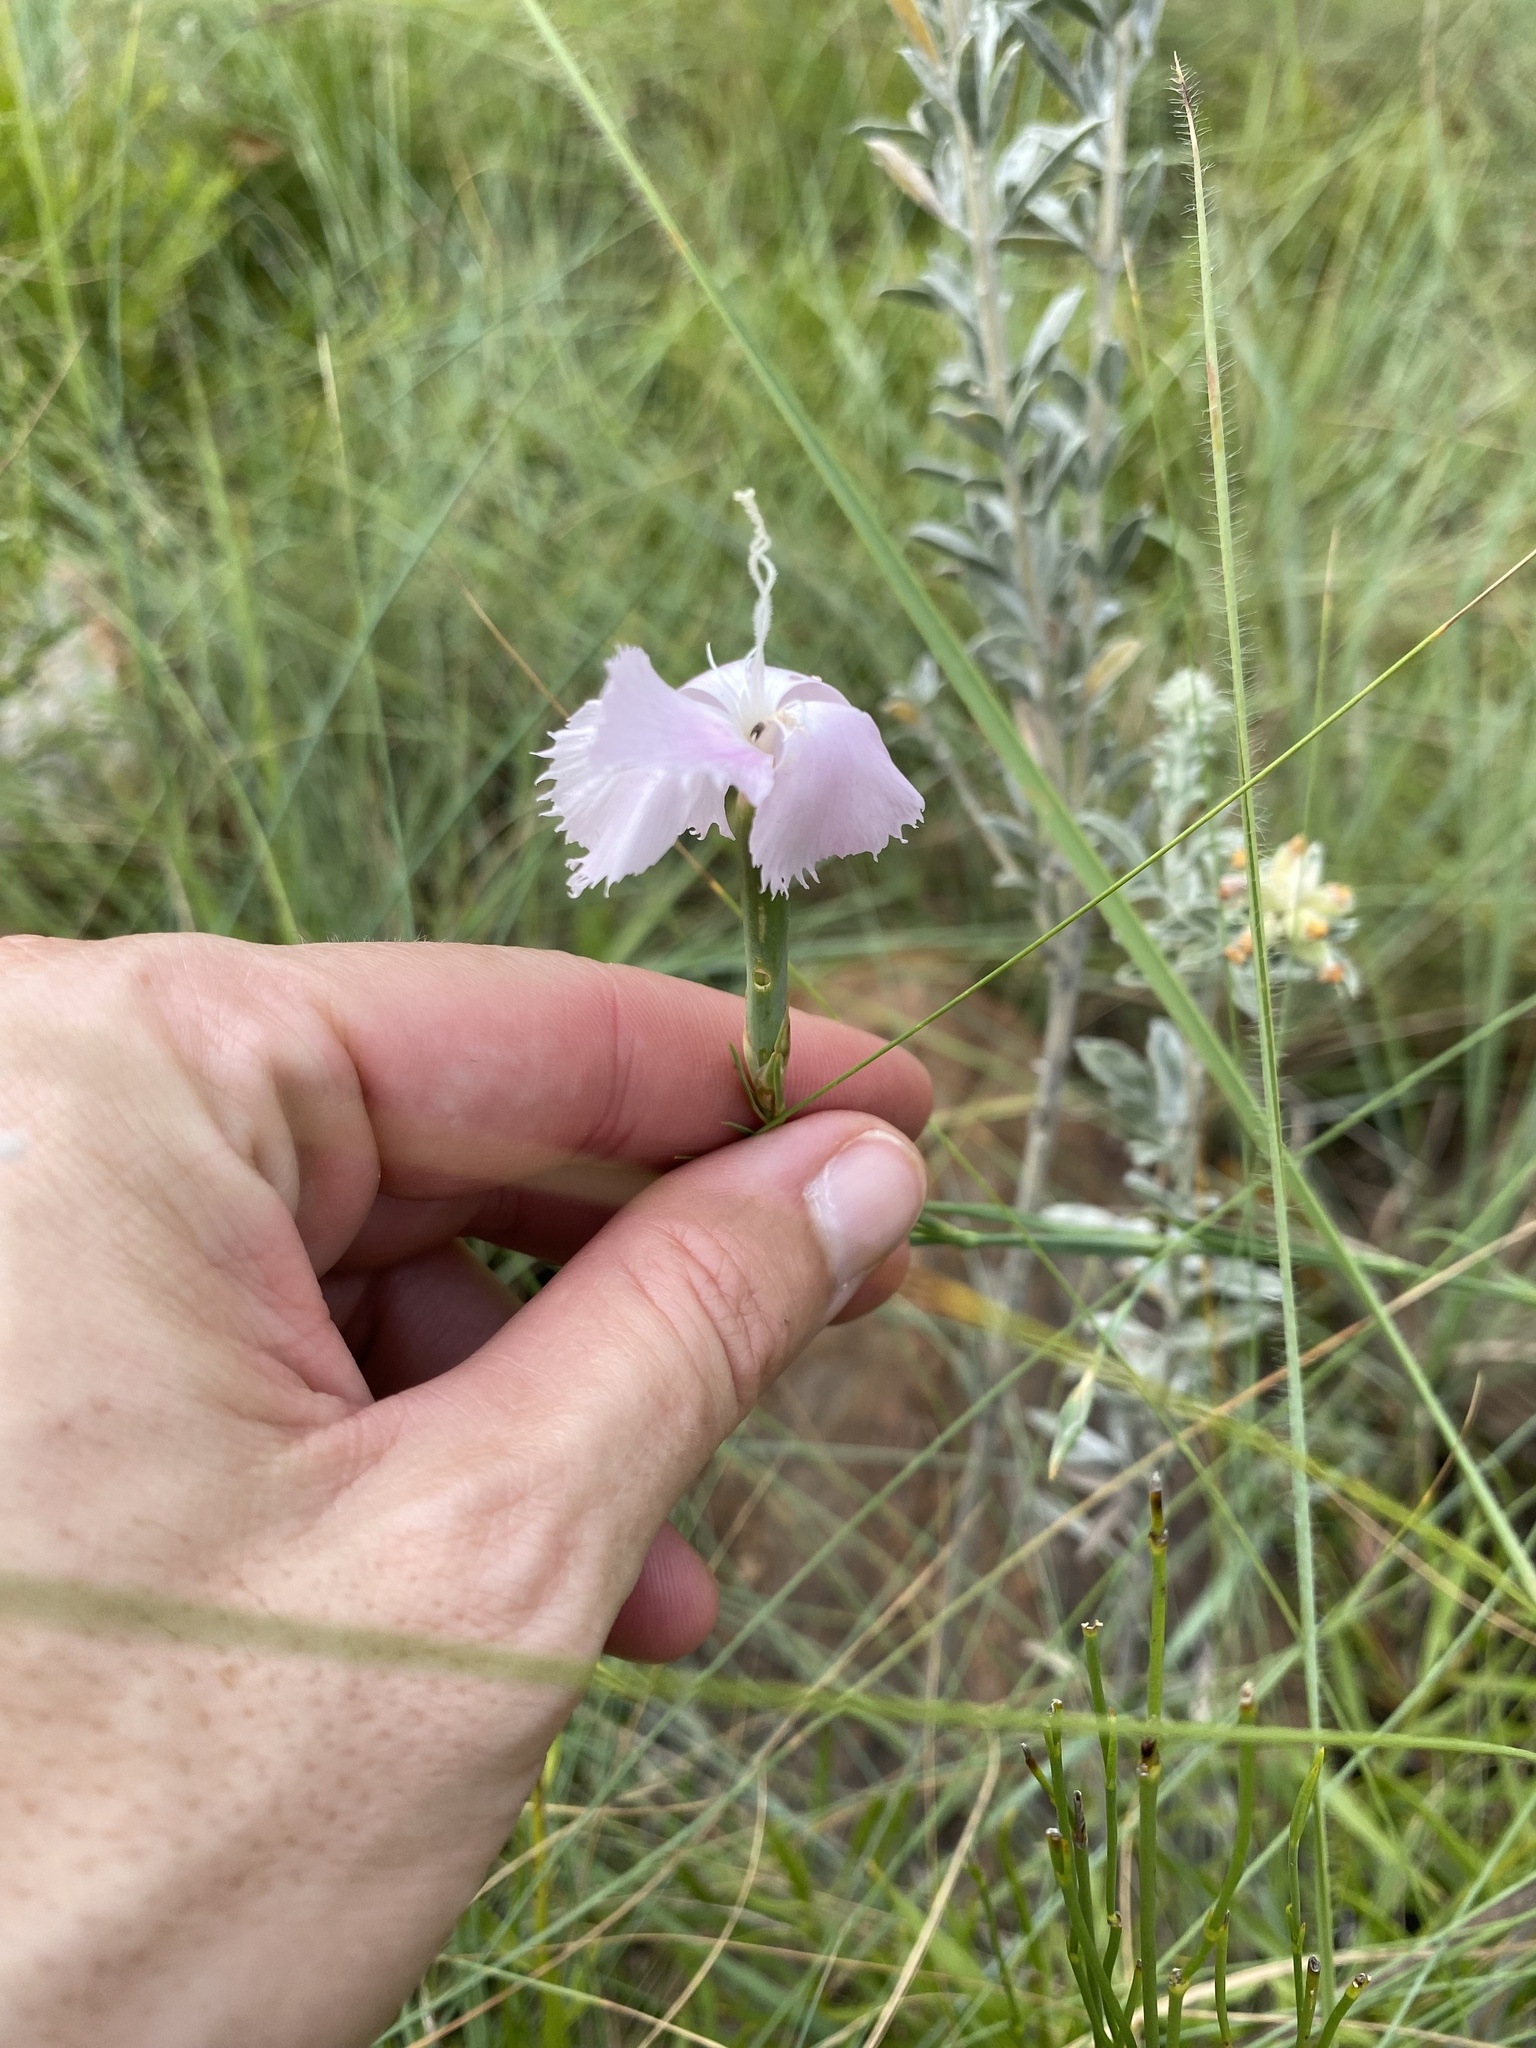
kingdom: Plantae
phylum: Tracheophyta
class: Magnoliopsida
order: Caryophyllales
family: Caryophyllaceae
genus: Dianthus
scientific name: Dianthus zeyheri
